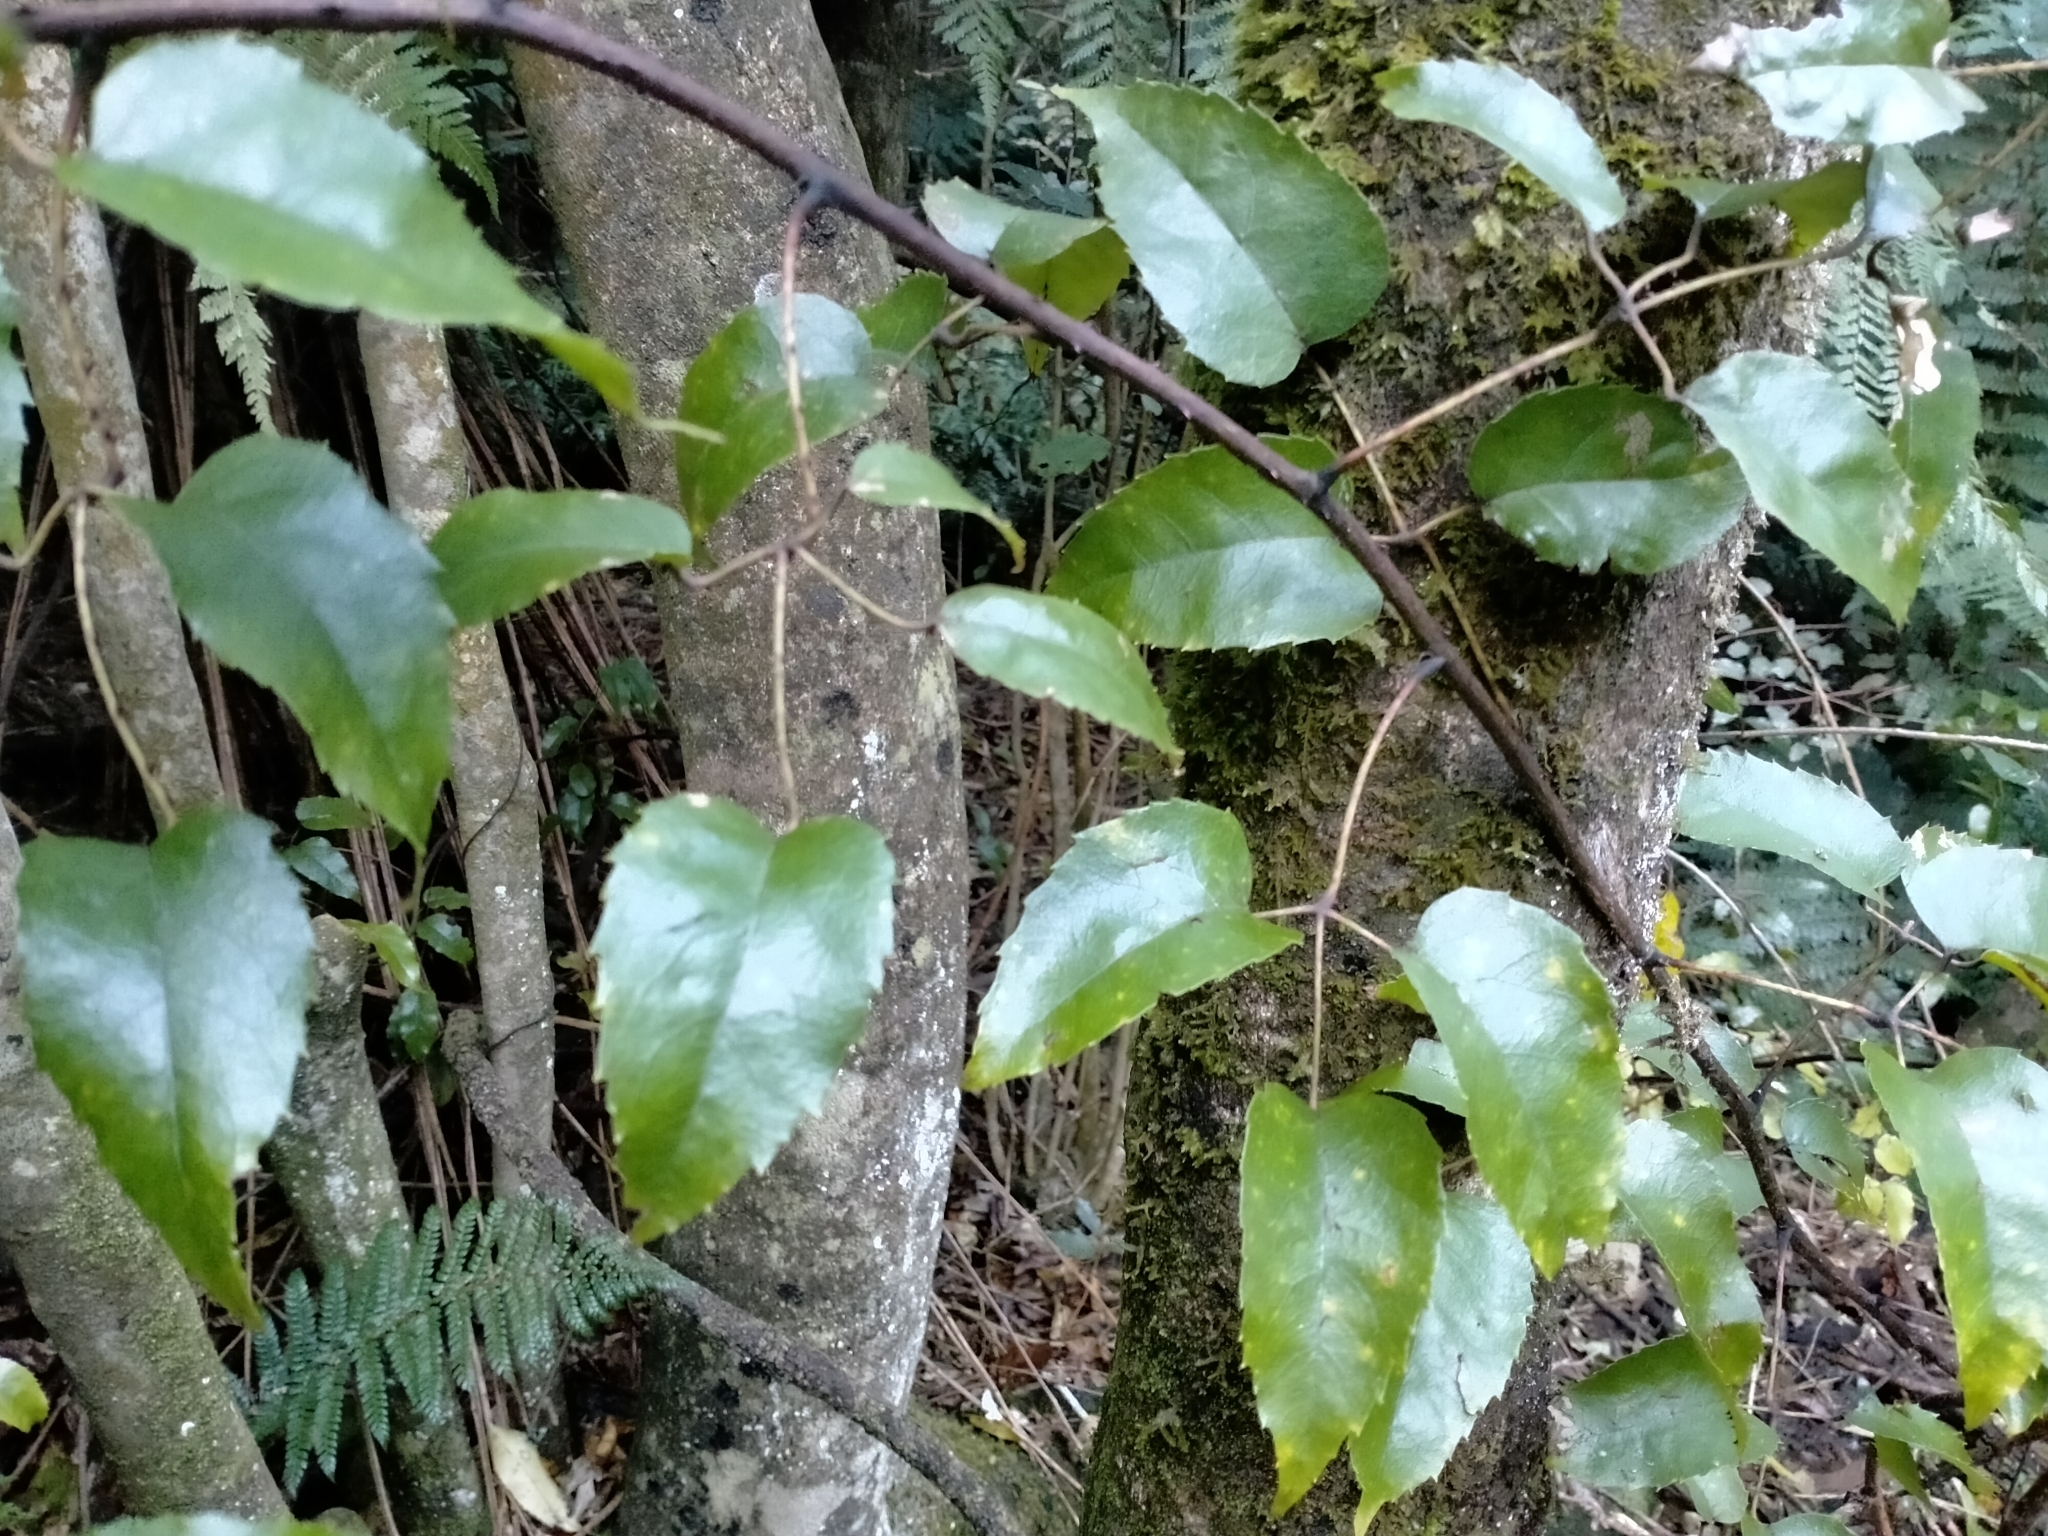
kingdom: Plantae
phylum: Tracheophyta
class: Magnoliopsida
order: Rosales
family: Rosaceae
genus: Rubus
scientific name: Rubus cissoides
